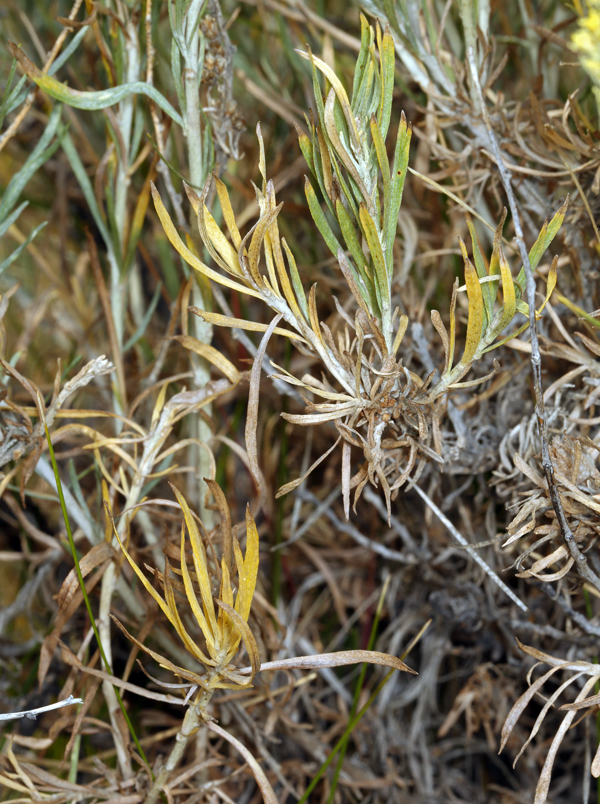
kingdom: Plantae
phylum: Tracheophyta
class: Magnoliopsida
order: Asterales
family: Asteraceae
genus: Artemisia
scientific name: Artemisia cana
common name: Silver sagebrush
